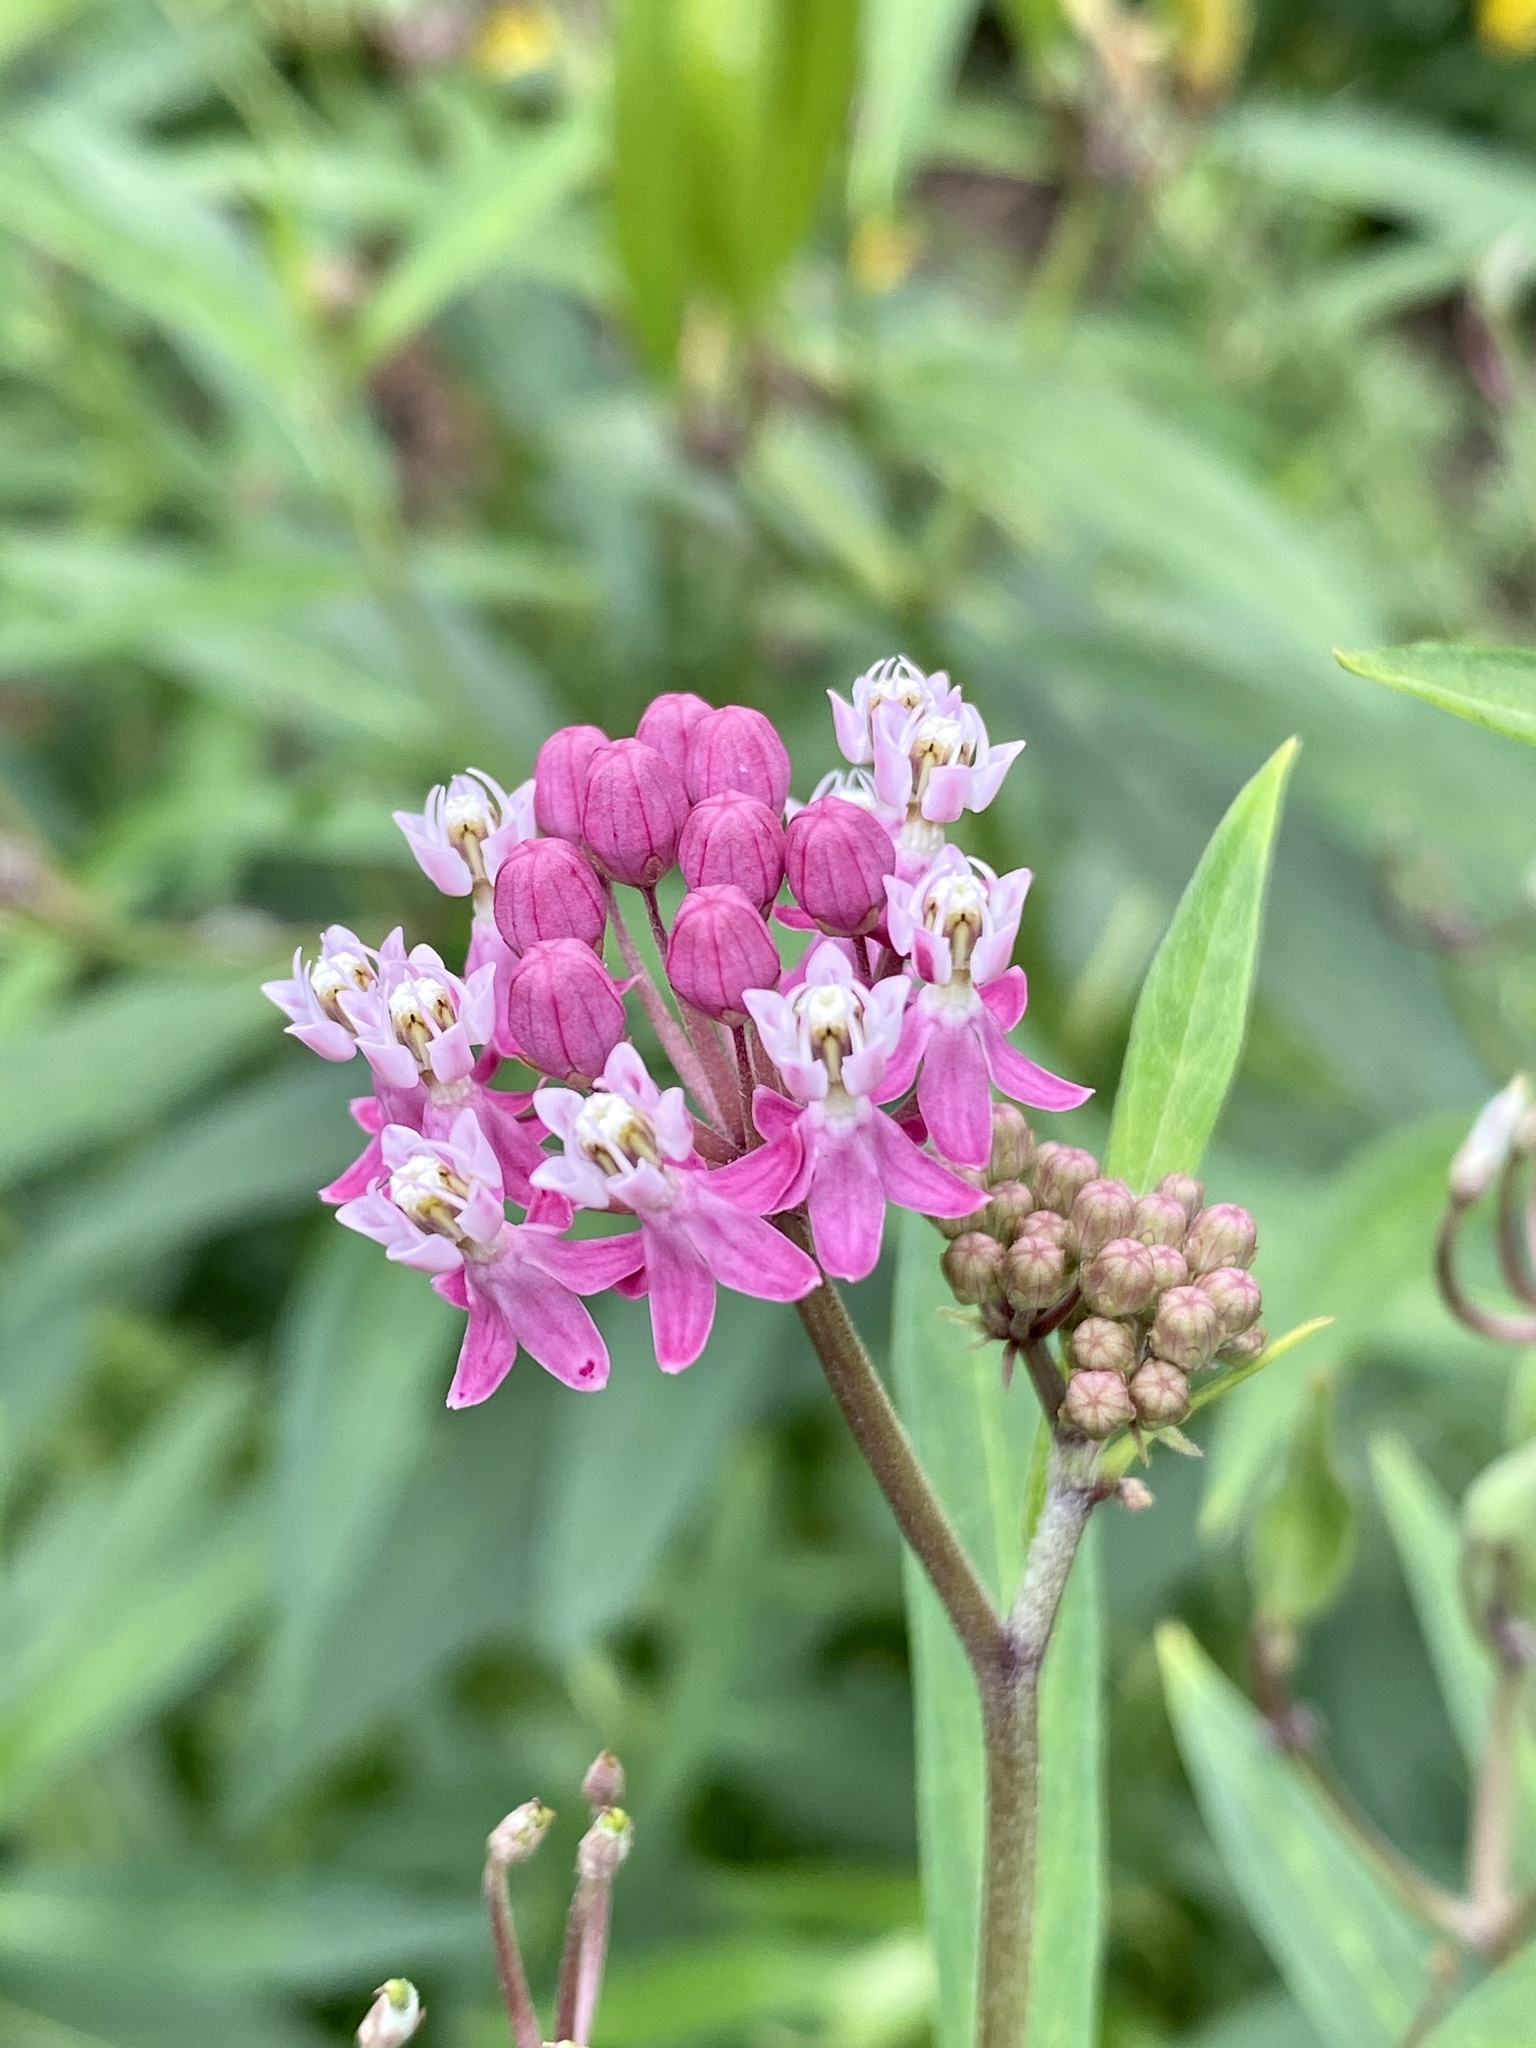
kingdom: Plantae
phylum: Tracheophyta
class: Magnoliopsida
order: Gentianales
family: Apocynaceae
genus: Asclepias
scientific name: Asclepias incarnata
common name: Swamp milkweed
